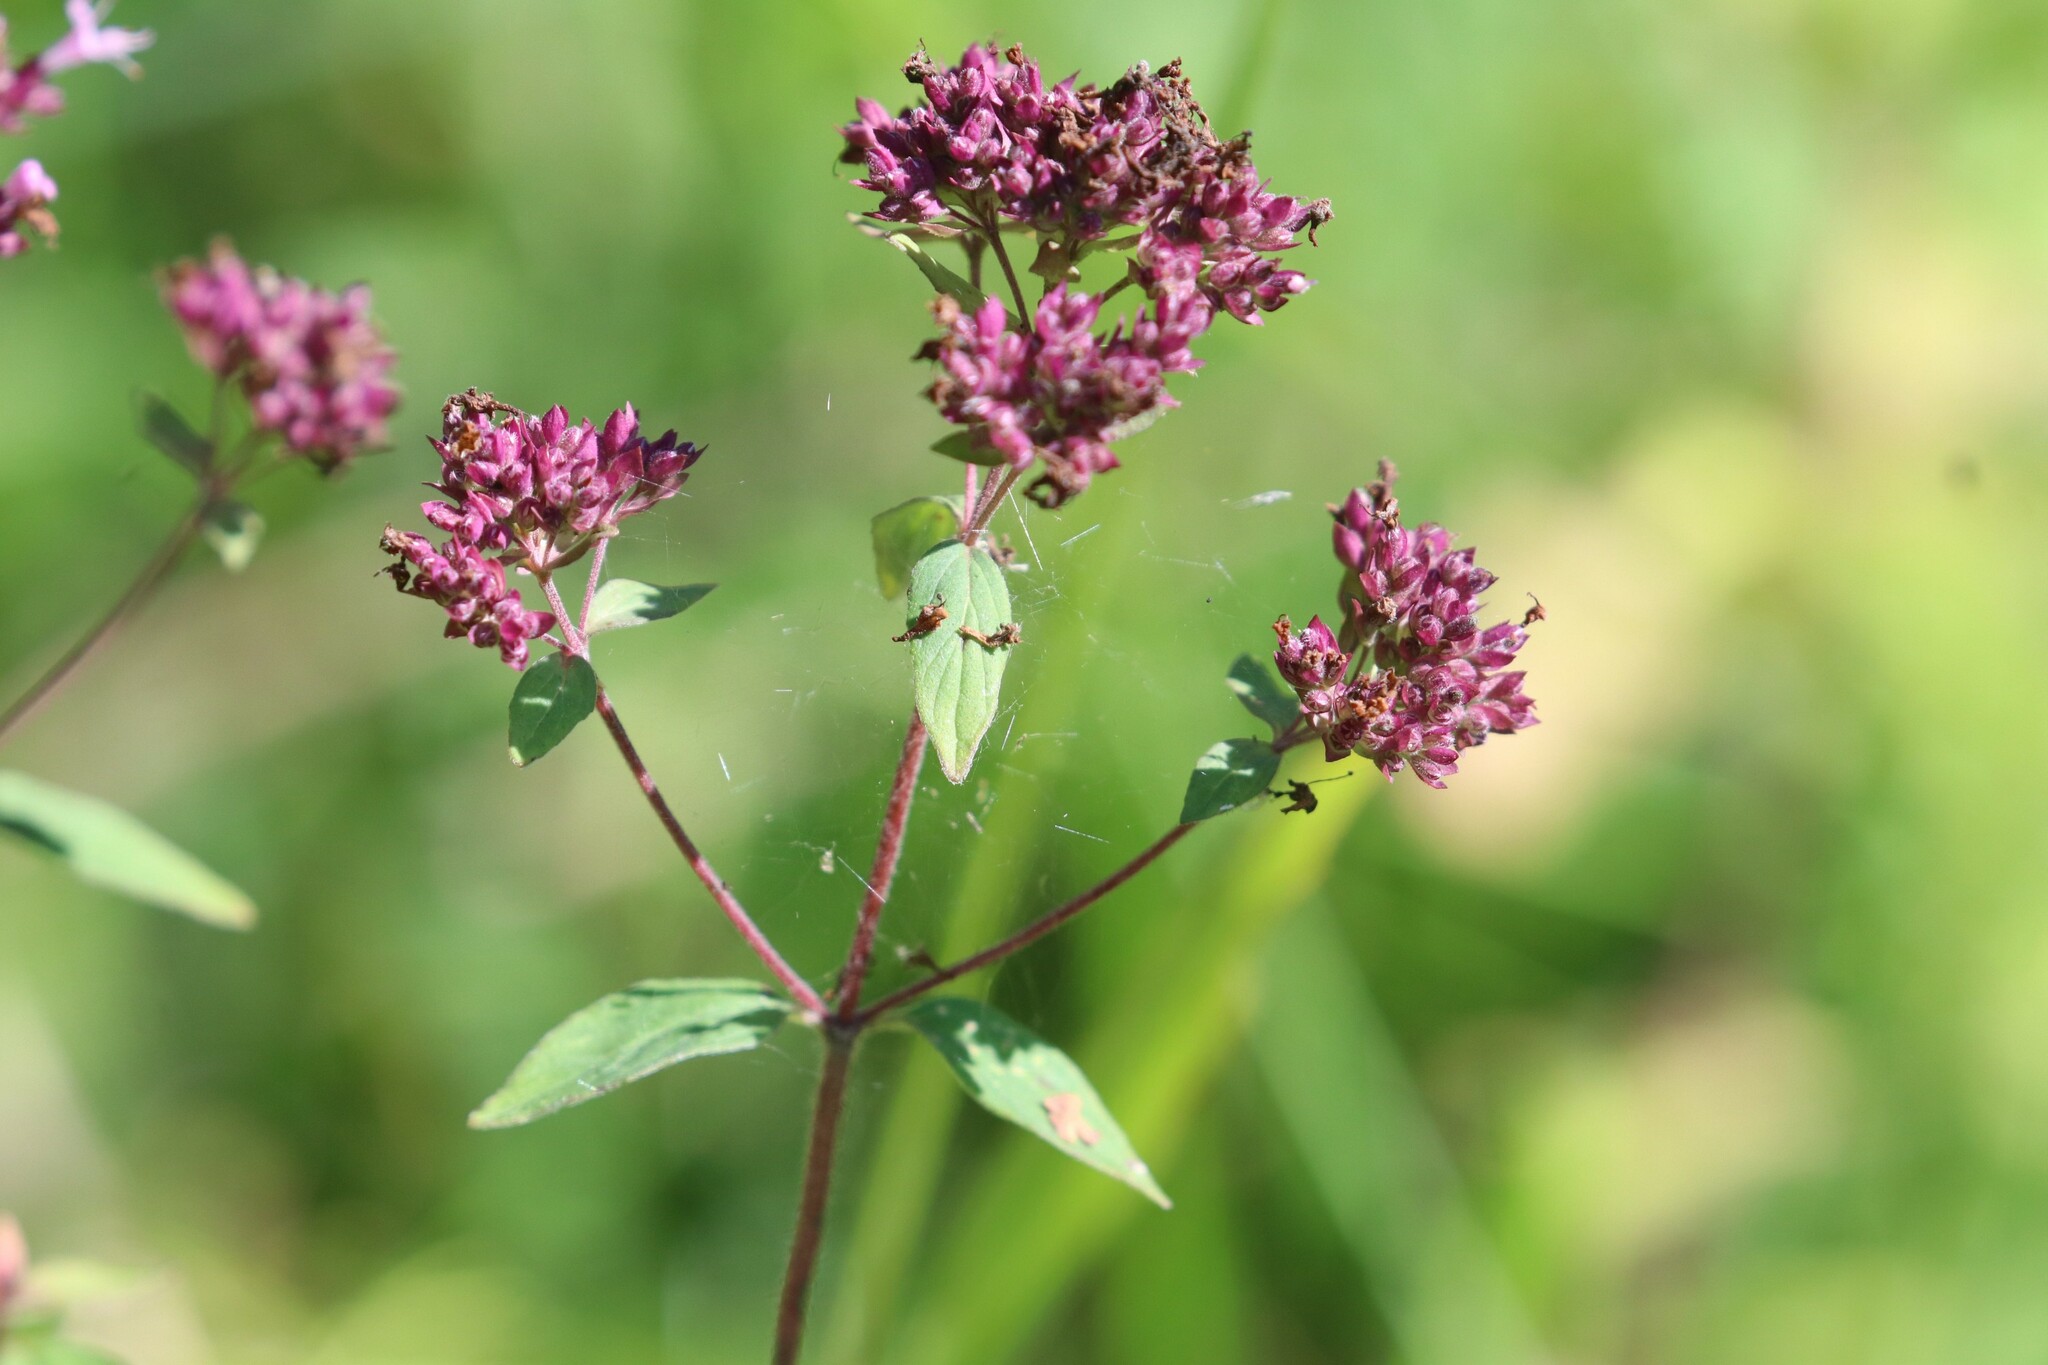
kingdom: Plantae
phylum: Tracheophyta
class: Magnoliopsida
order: Lamiales
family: Lamiaceae
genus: Origanum
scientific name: Origanum vulgare
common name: Wild marjoram
